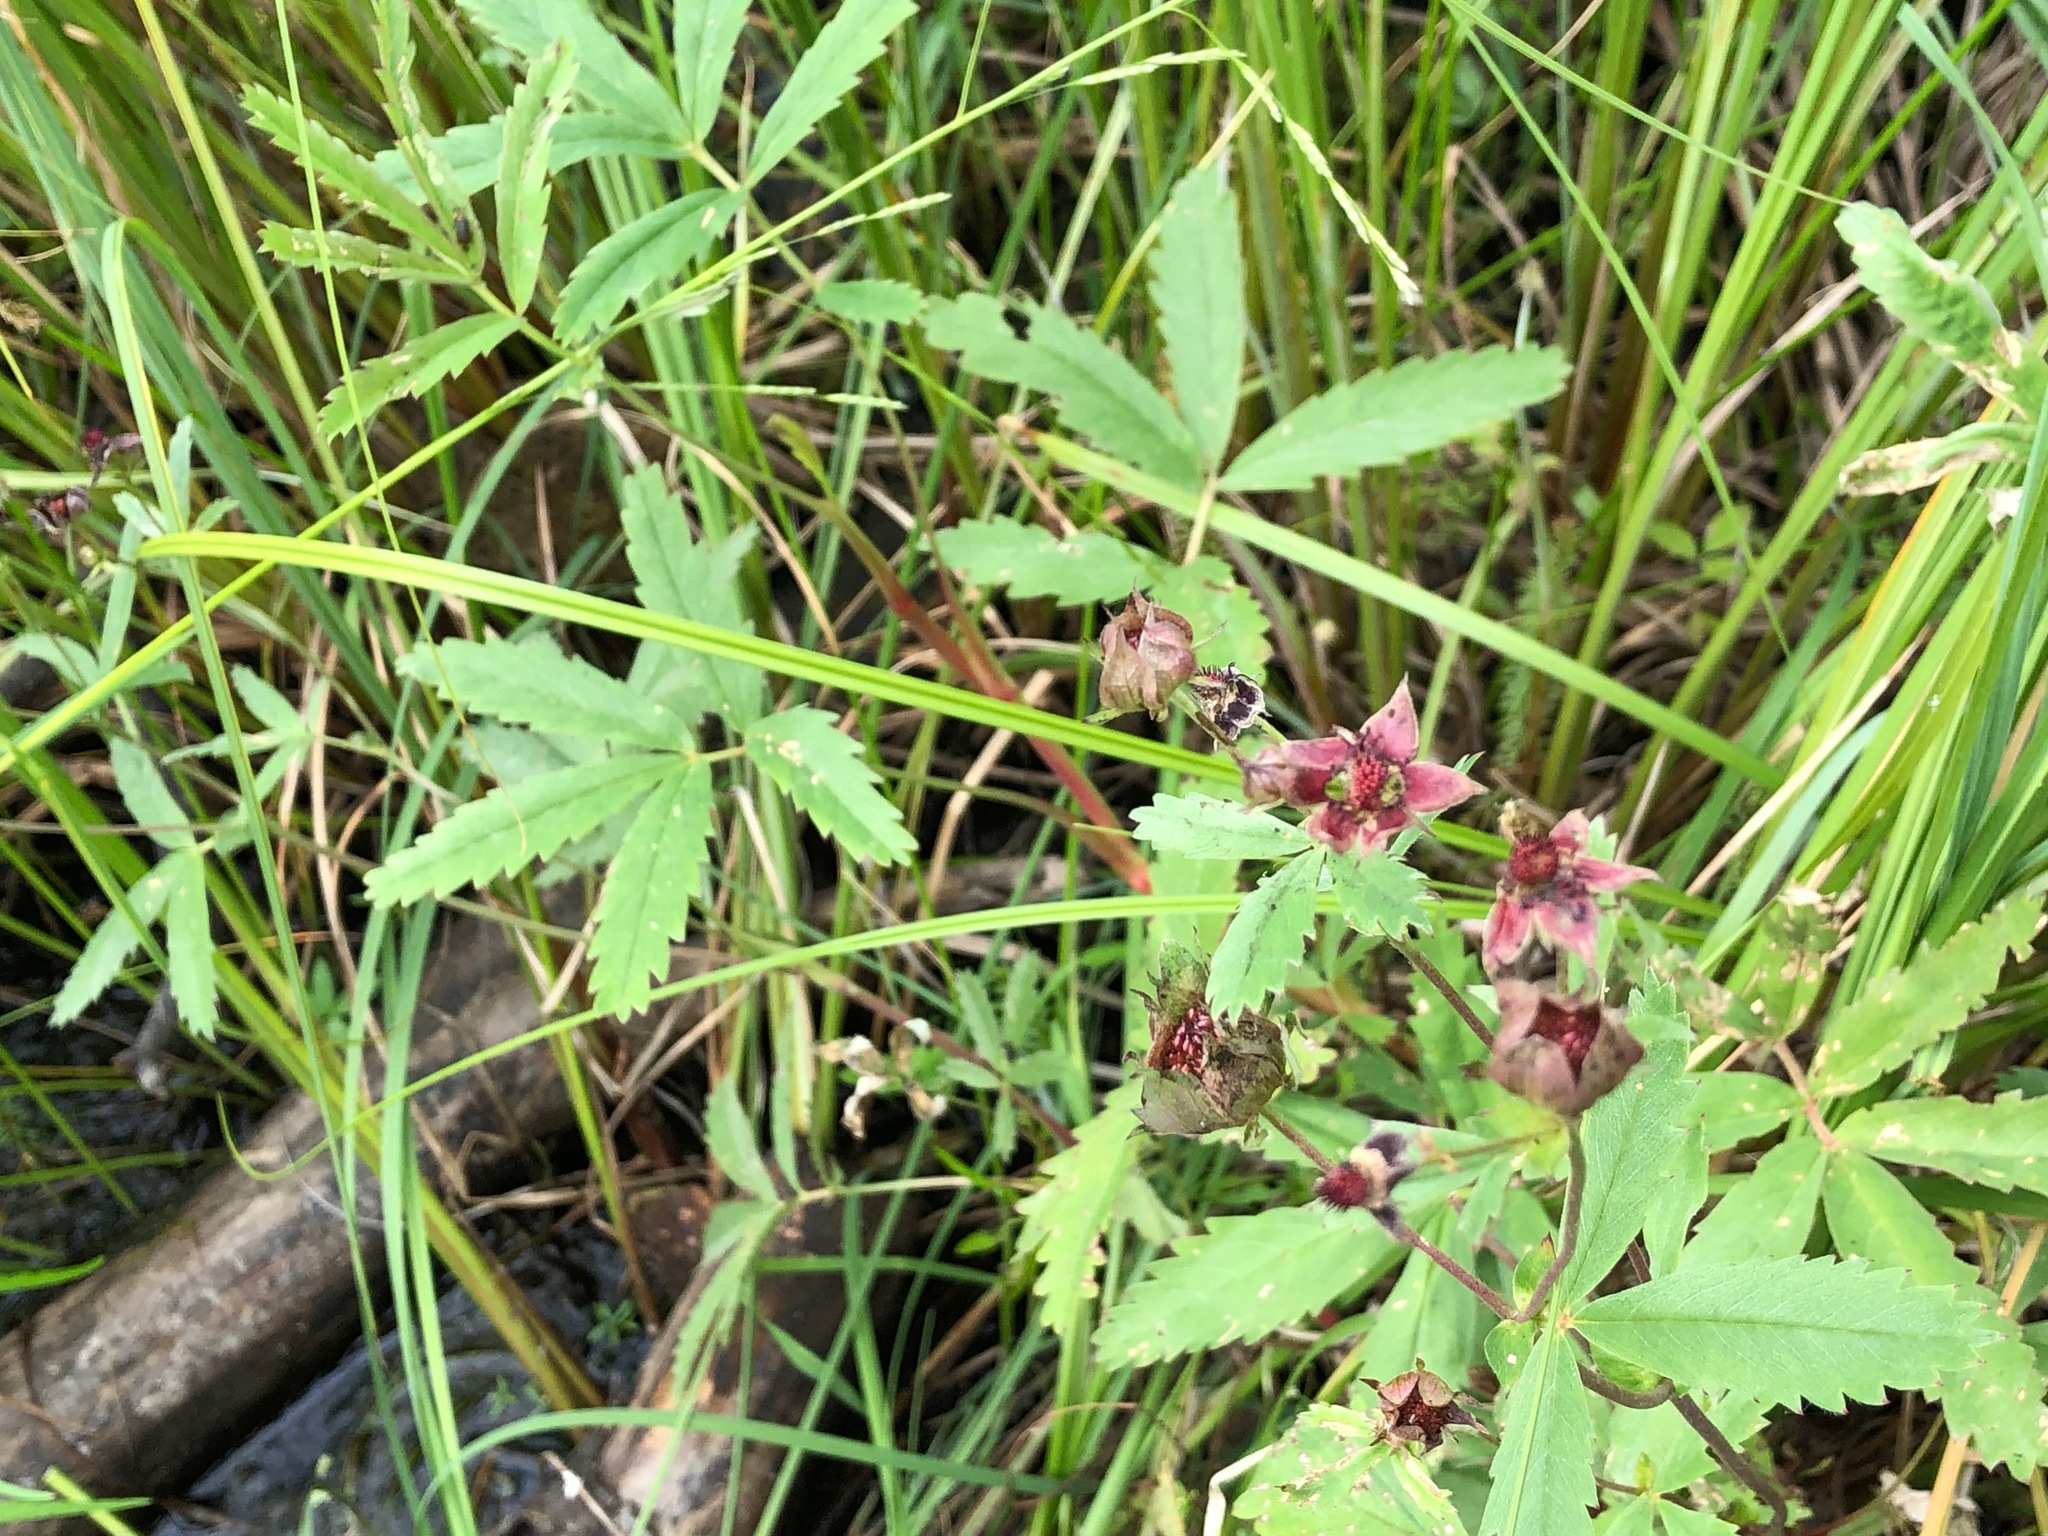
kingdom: Plantae
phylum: Tracheophyta
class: Magnoliopsida
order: Rosales
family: Rosaceae
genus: Comarum
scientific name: Comarum palustre
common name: Marsh cinquefoil
